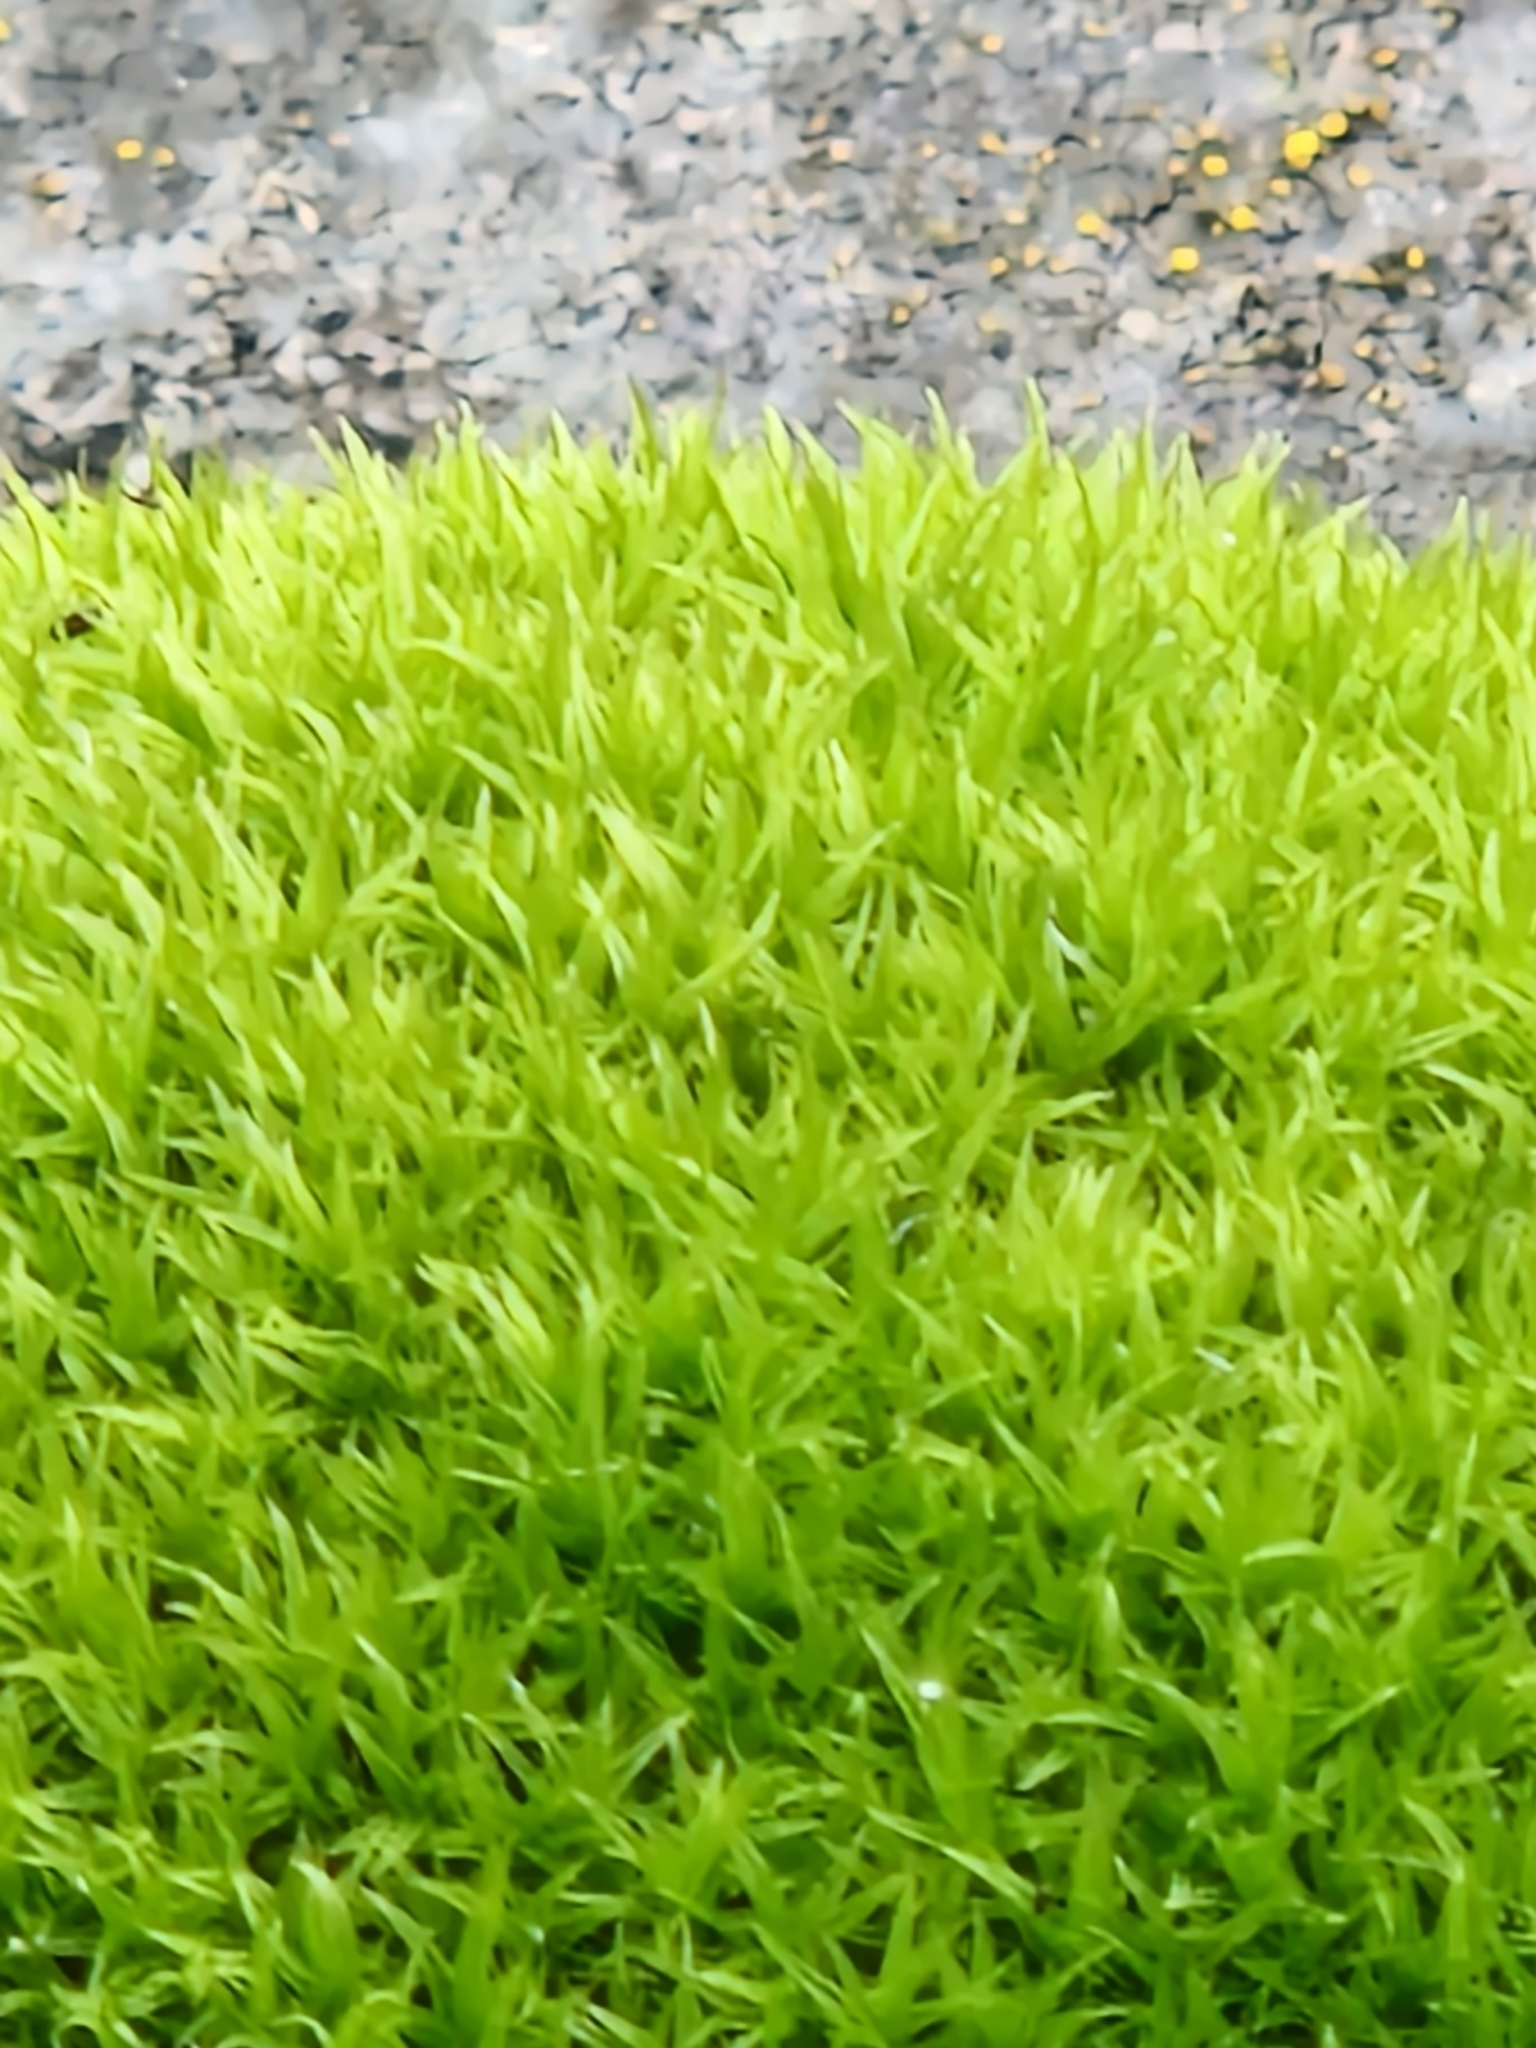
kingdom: Plantae
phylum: Bryophyta
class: Bryopsida
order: Dicranales
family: Ditrichaceae
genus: Ceratodon
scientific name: Ceratodon purpureus
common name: Redshank
